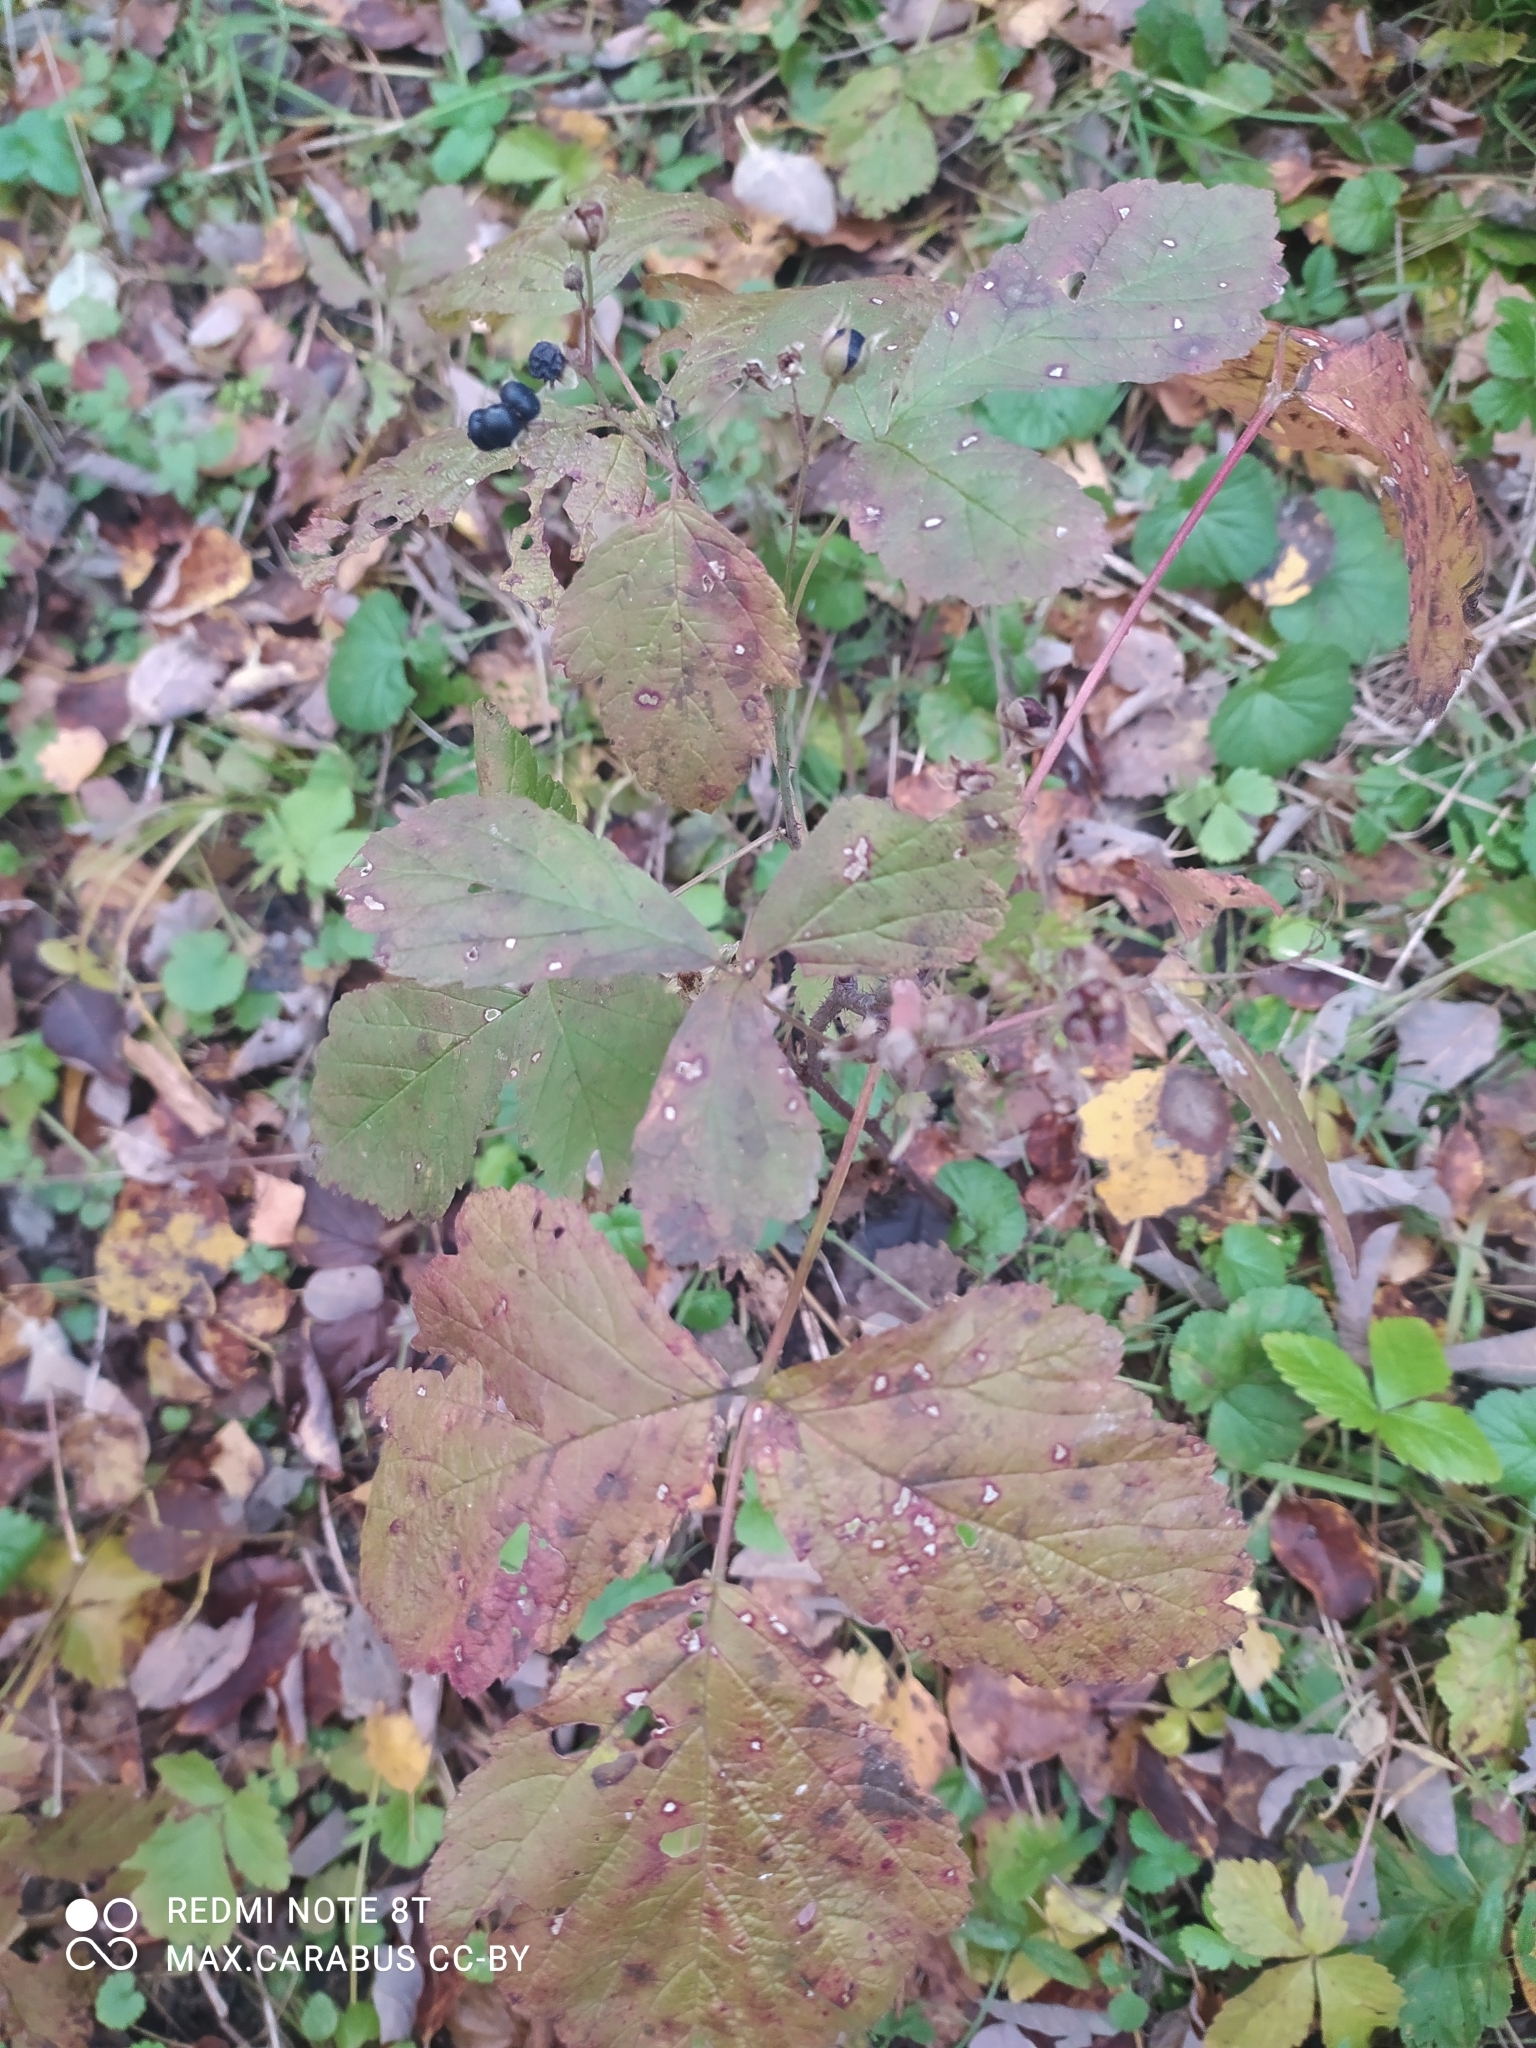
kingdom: Plantae
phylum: Tracheophyta
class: Magnoliopsida
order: Rosales
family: Rosaceae
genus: Rubus
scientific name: Rubus caesius
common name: Dewberry
